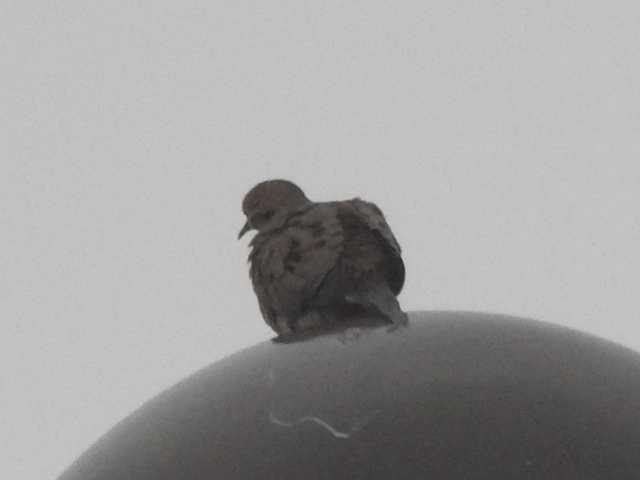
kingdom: Animalia
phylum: Chordata
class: Aves
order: Columbiformes
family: Columbidae
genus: Zenaida
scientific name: Zenaida macroura
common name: Mourning dove
